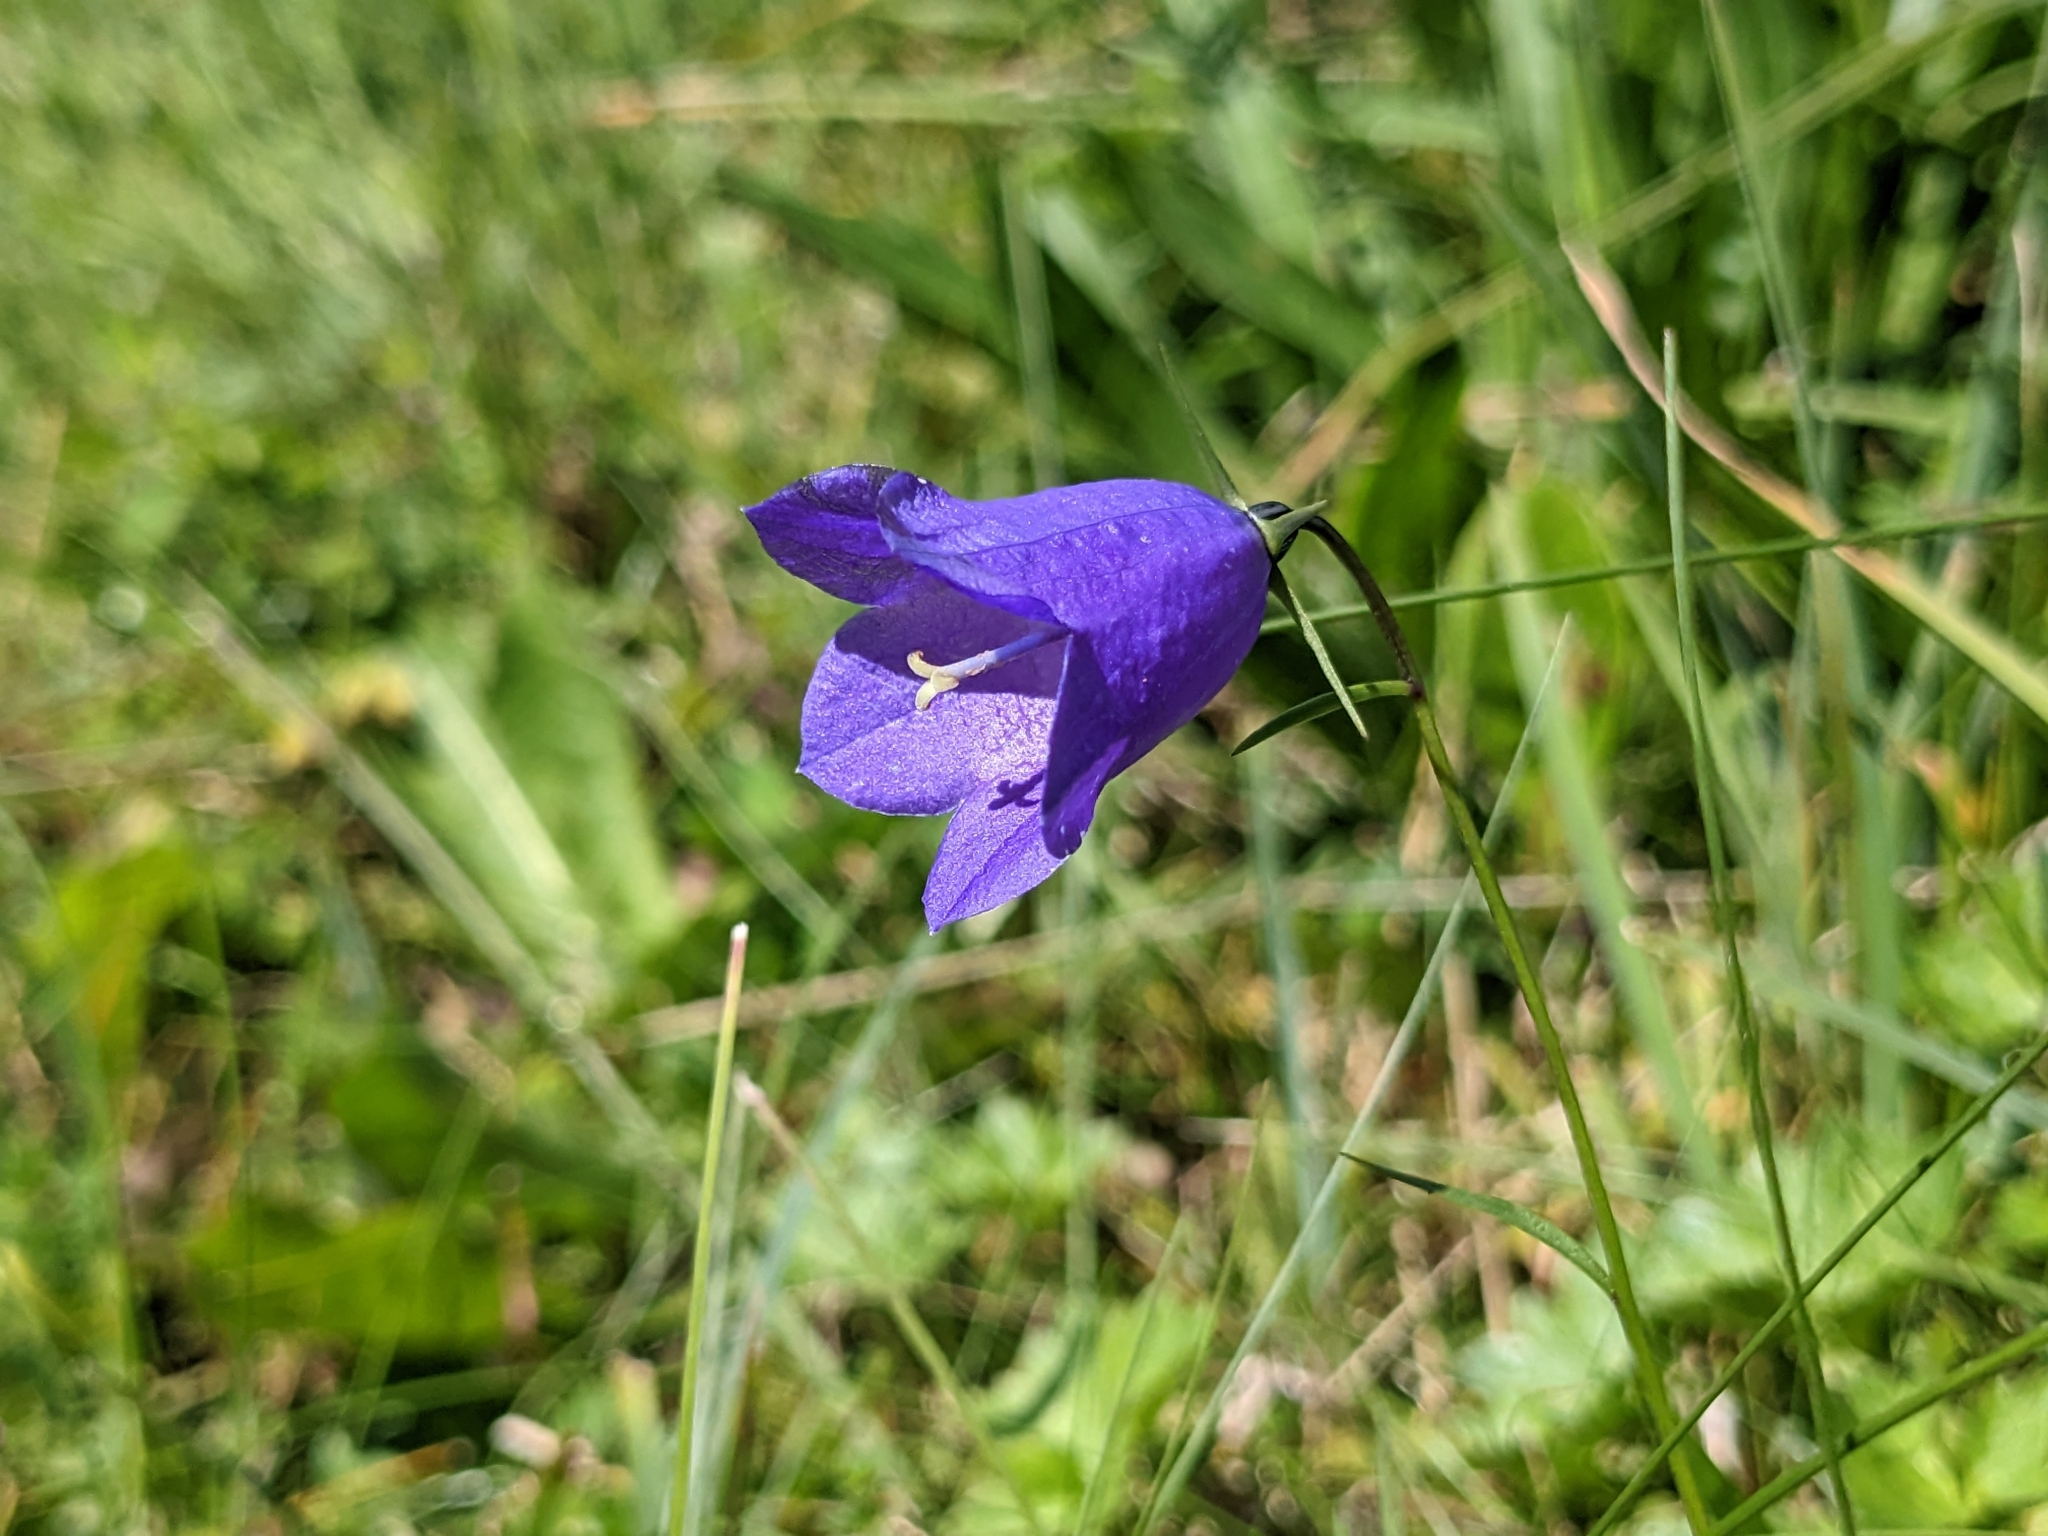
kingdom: Plantae
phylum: Tracheophyta
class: Magnoliopsida
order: Asterales
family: Campanulaceae
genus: Campanula
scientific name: Campanula scheuchzeri
